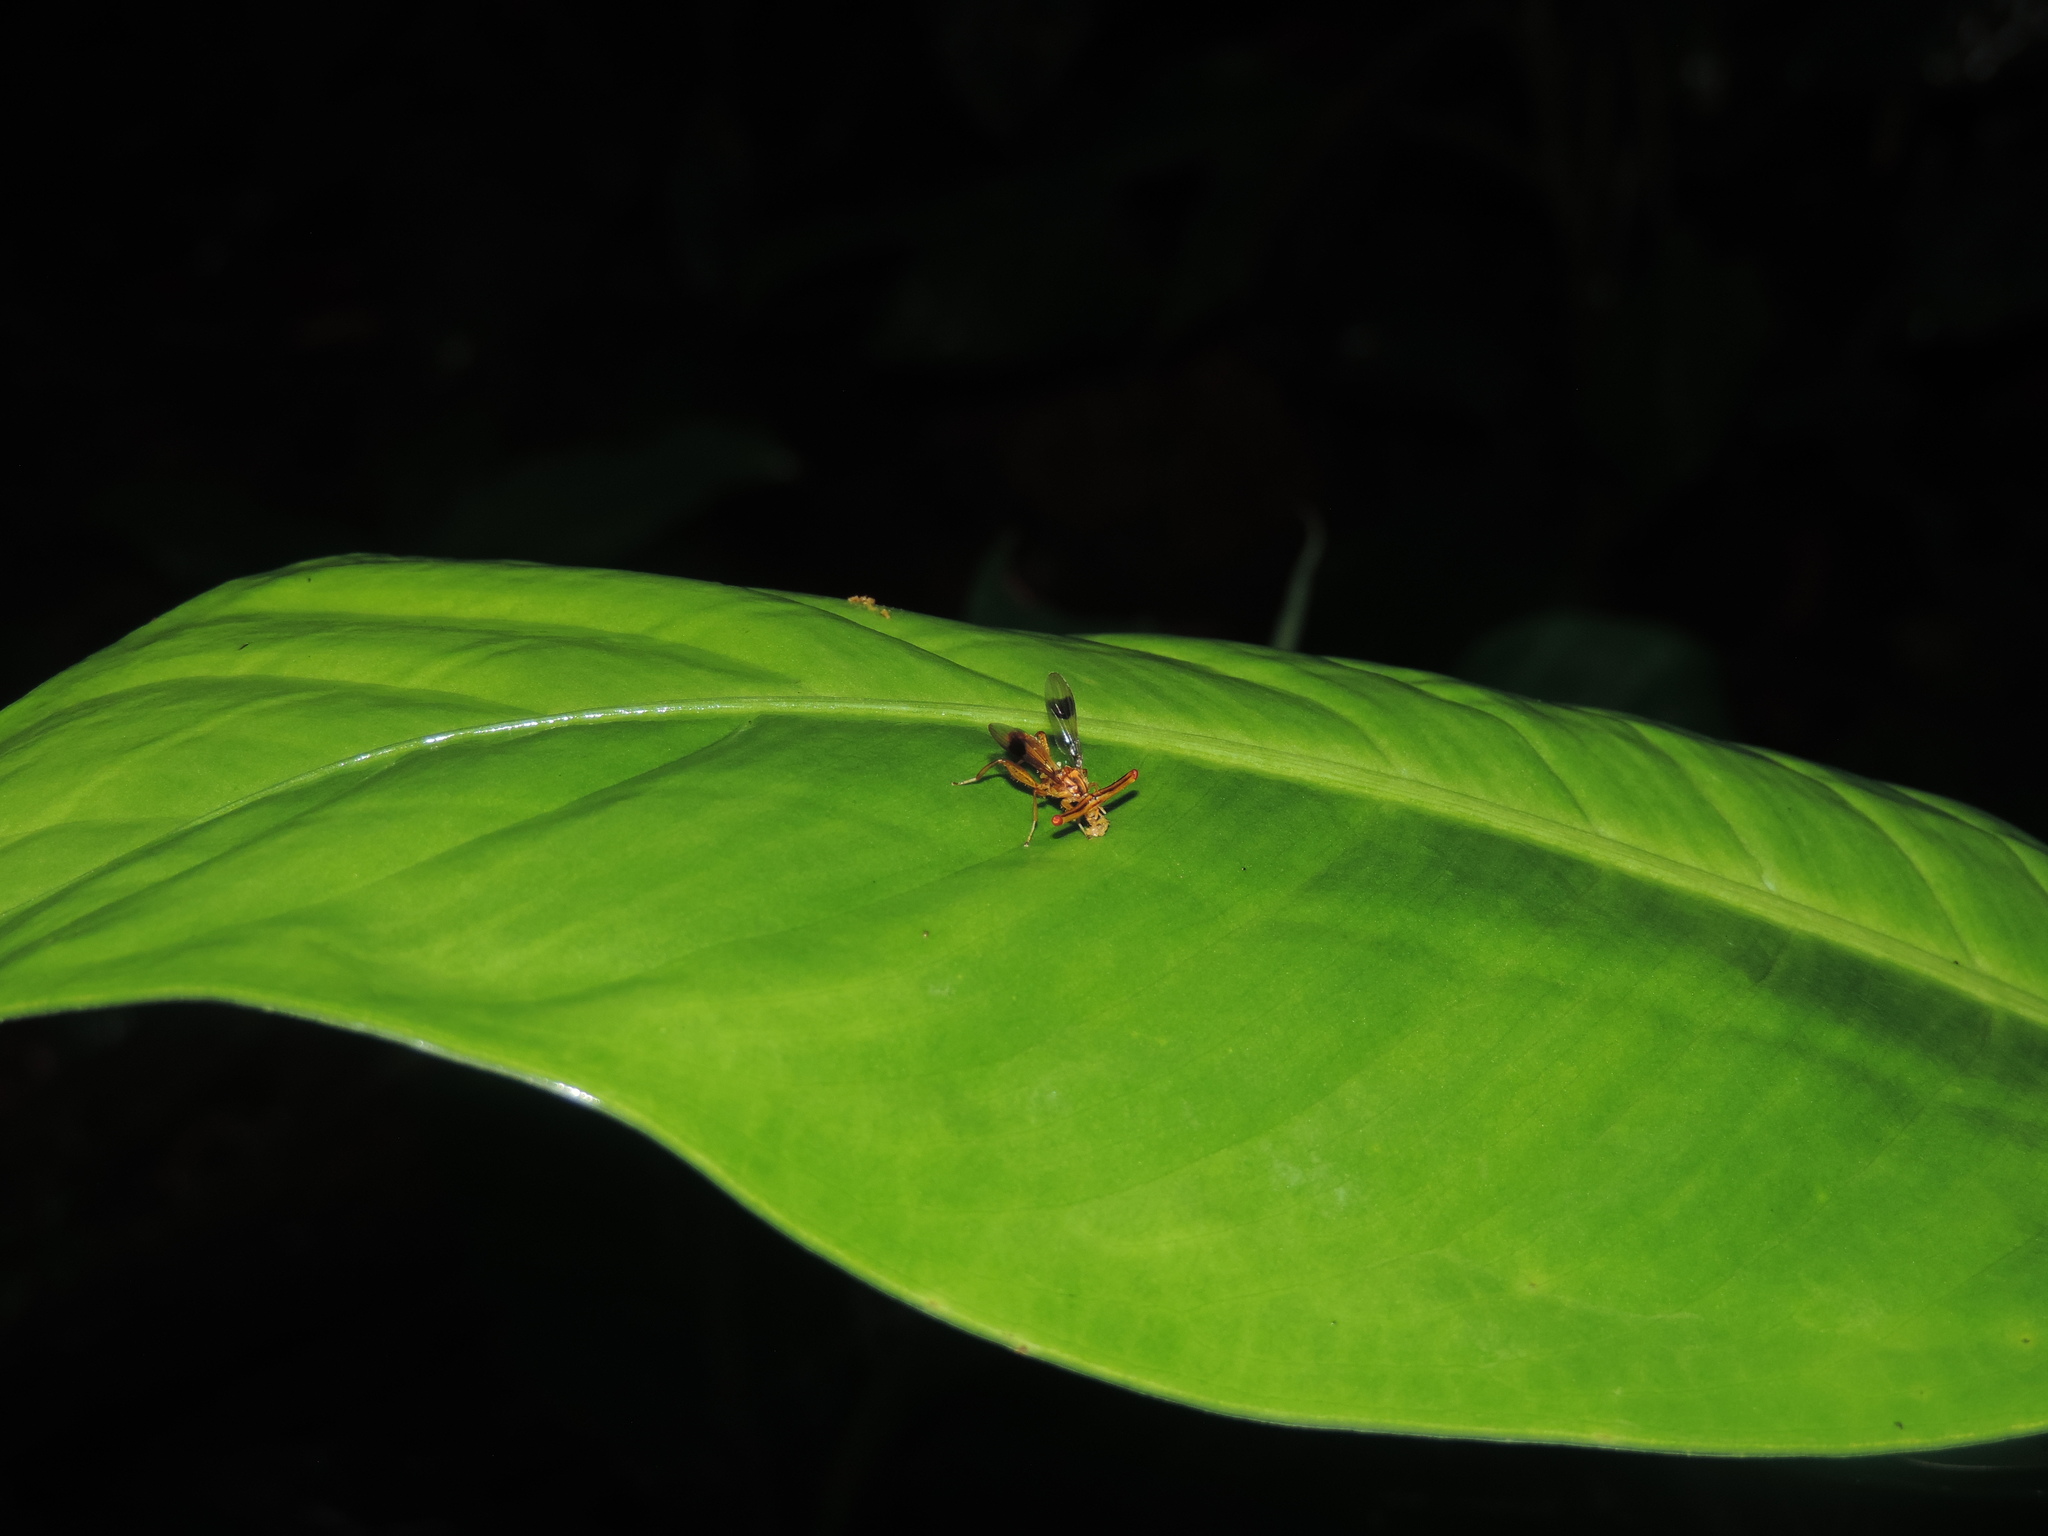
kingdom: Animalia
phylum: Arthropoda
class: Insecta
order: Diptera
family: Richardiidae
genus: Richardia
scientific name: Richardia
